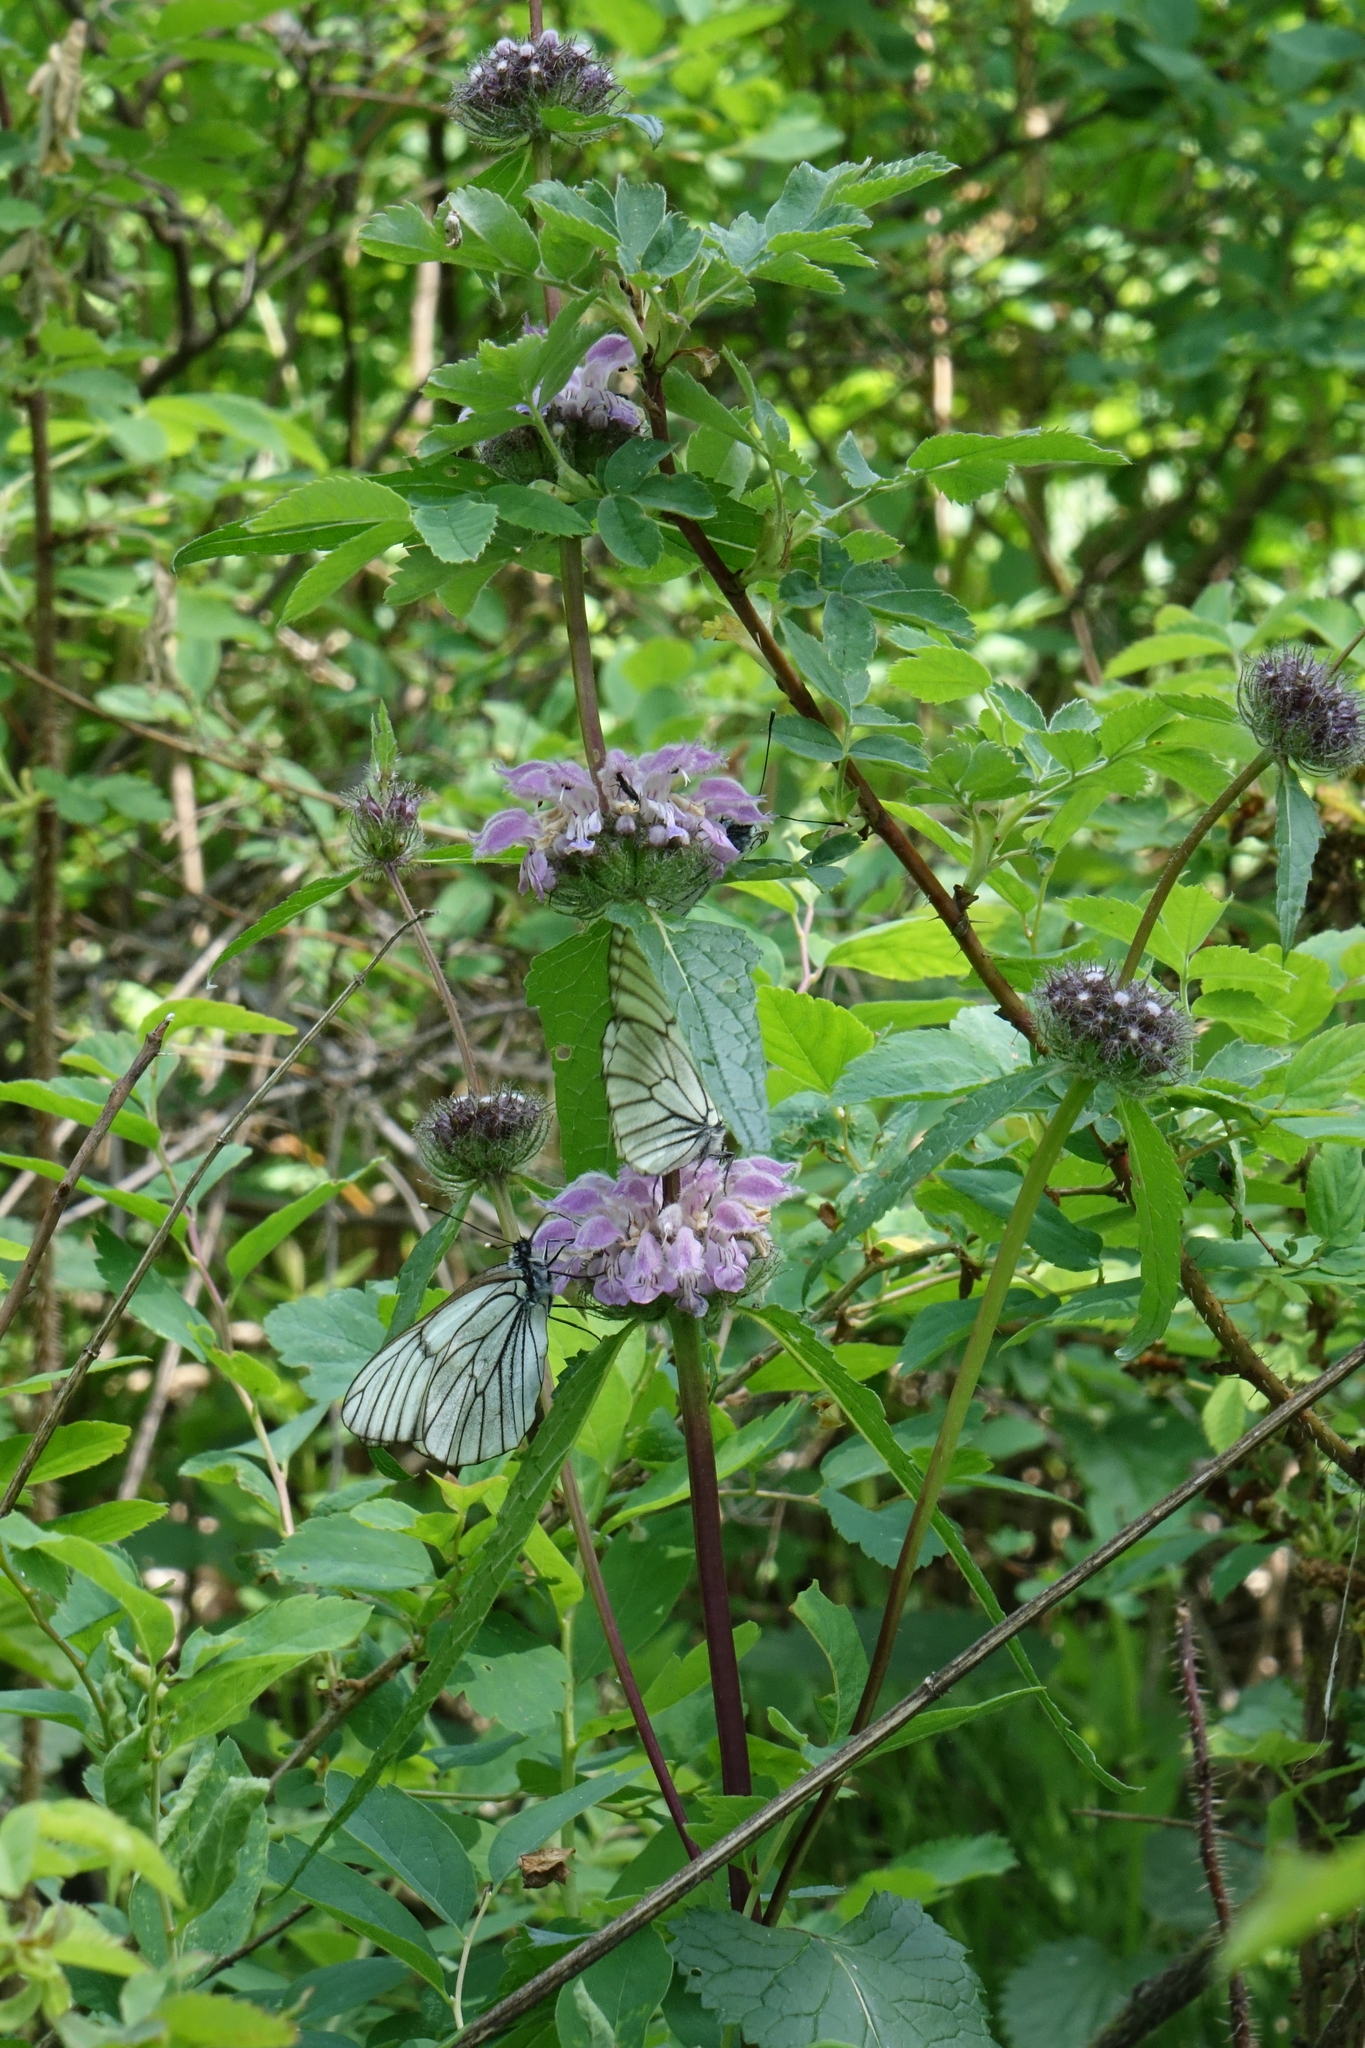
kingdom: Plantae
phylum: Tracheophyta
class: Magnoliopsida
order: Lamiales
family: Lamiaceae
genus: Phlomoides
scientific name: Phlomoides tuberosa
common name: Tuberous jerusalem sage
